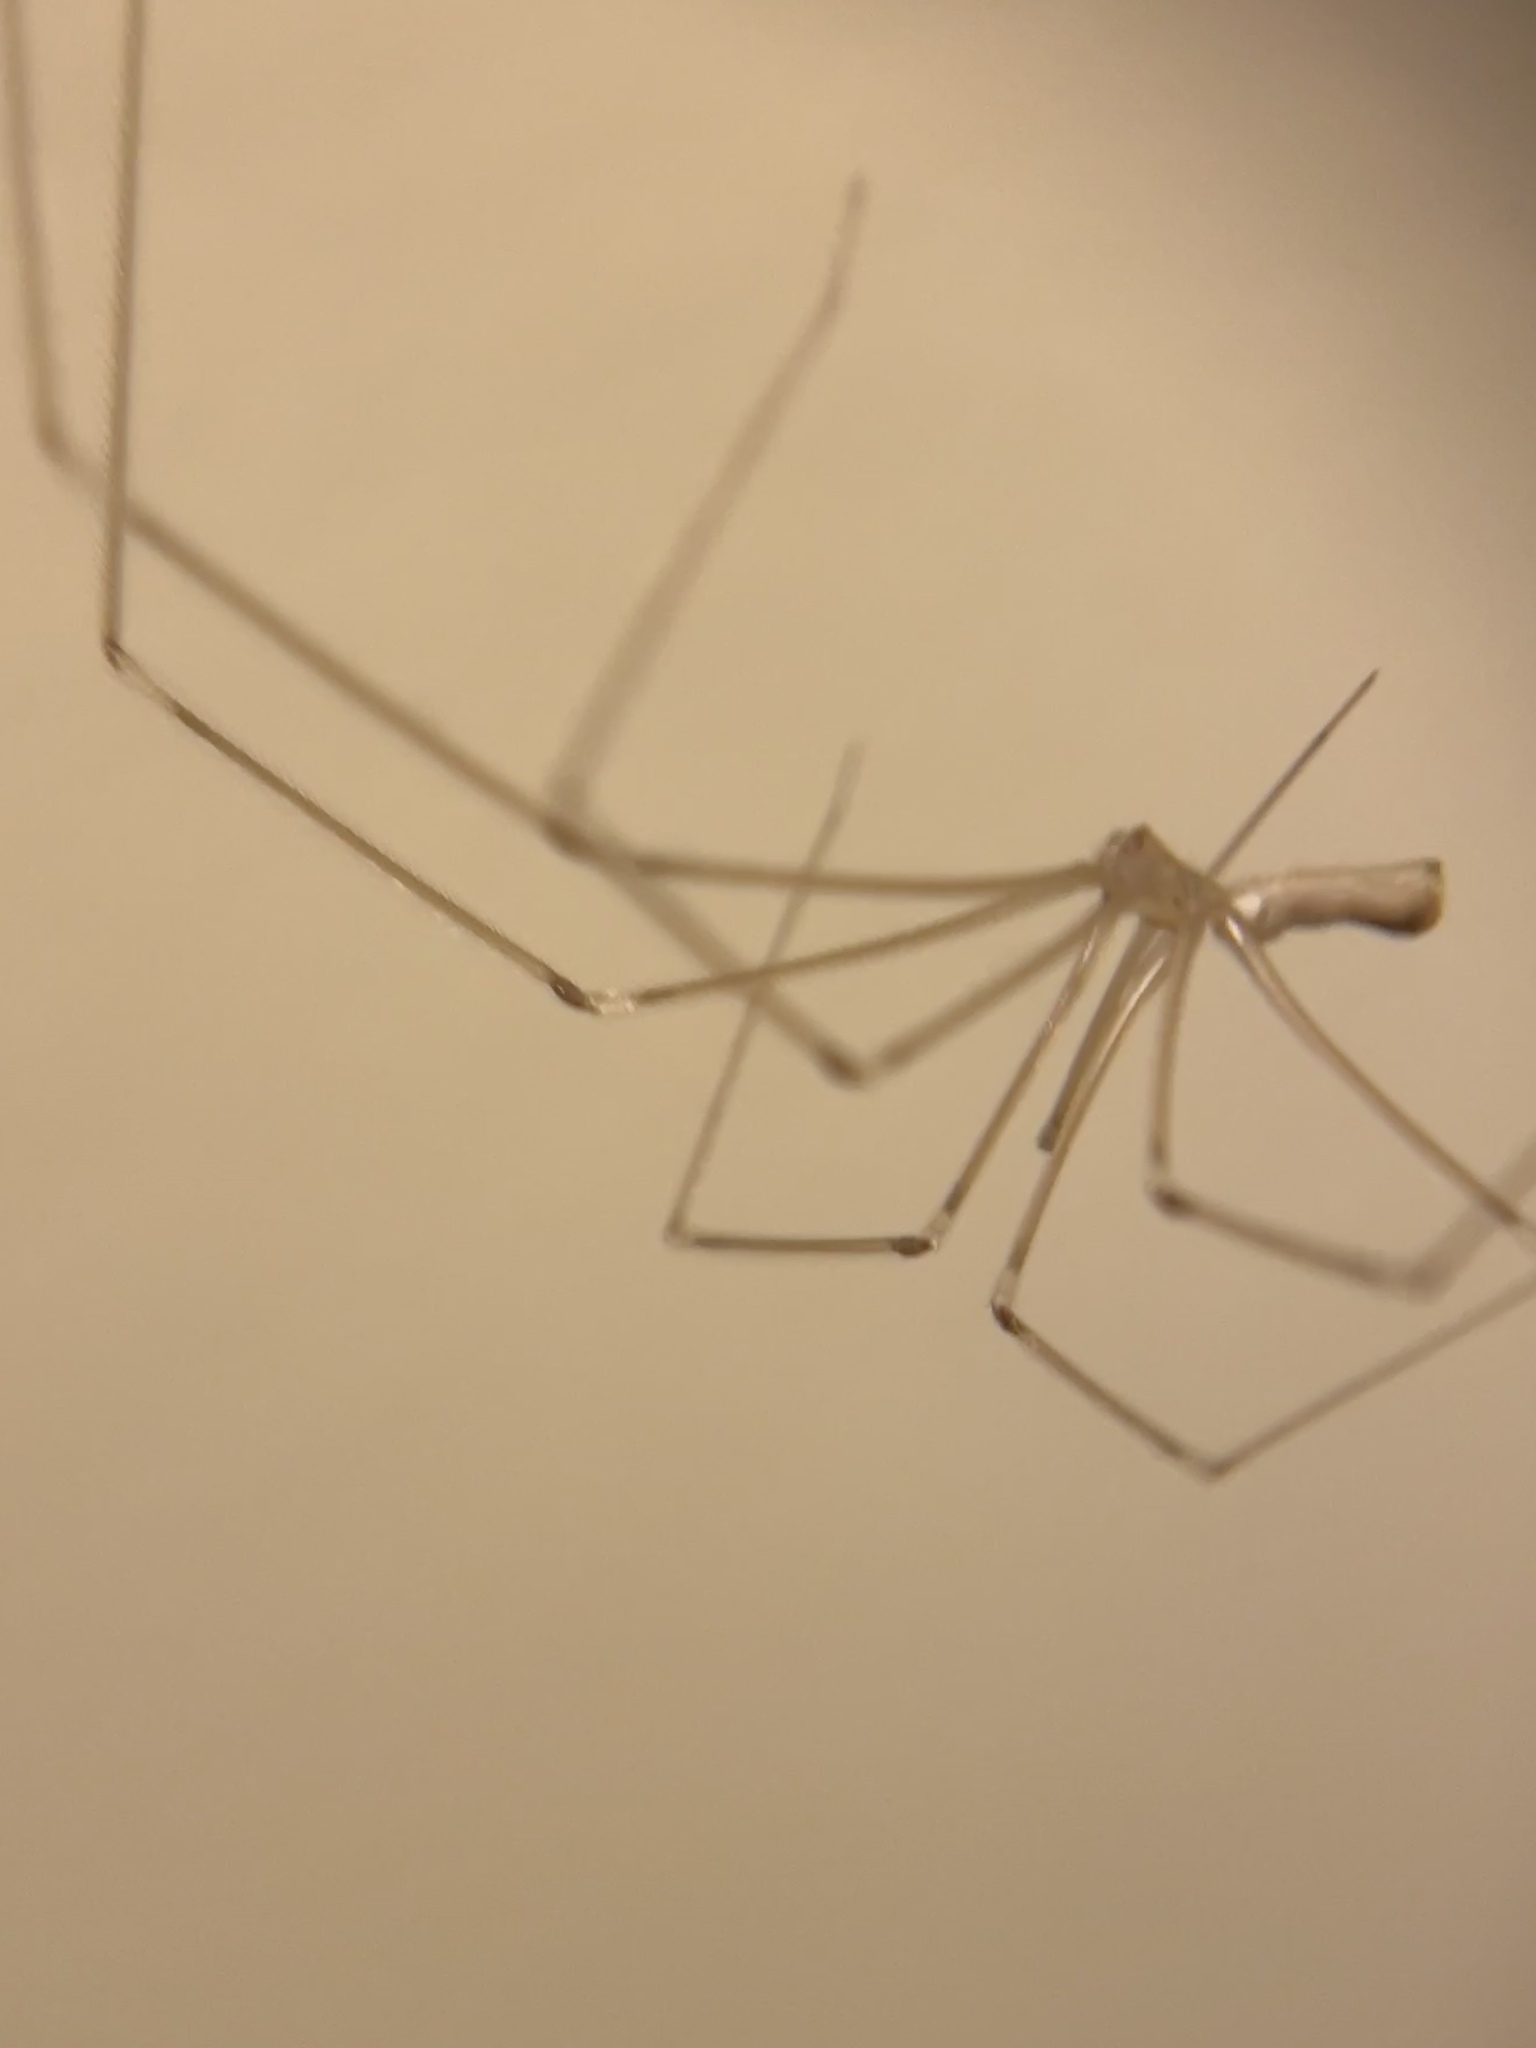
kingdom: Animalia
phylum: Arthropoda
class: Arachnida
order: Araneae
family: Pholcidae
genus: Pholcus
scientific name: Pholcus phalangioides
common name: Longbodied cellar spider
